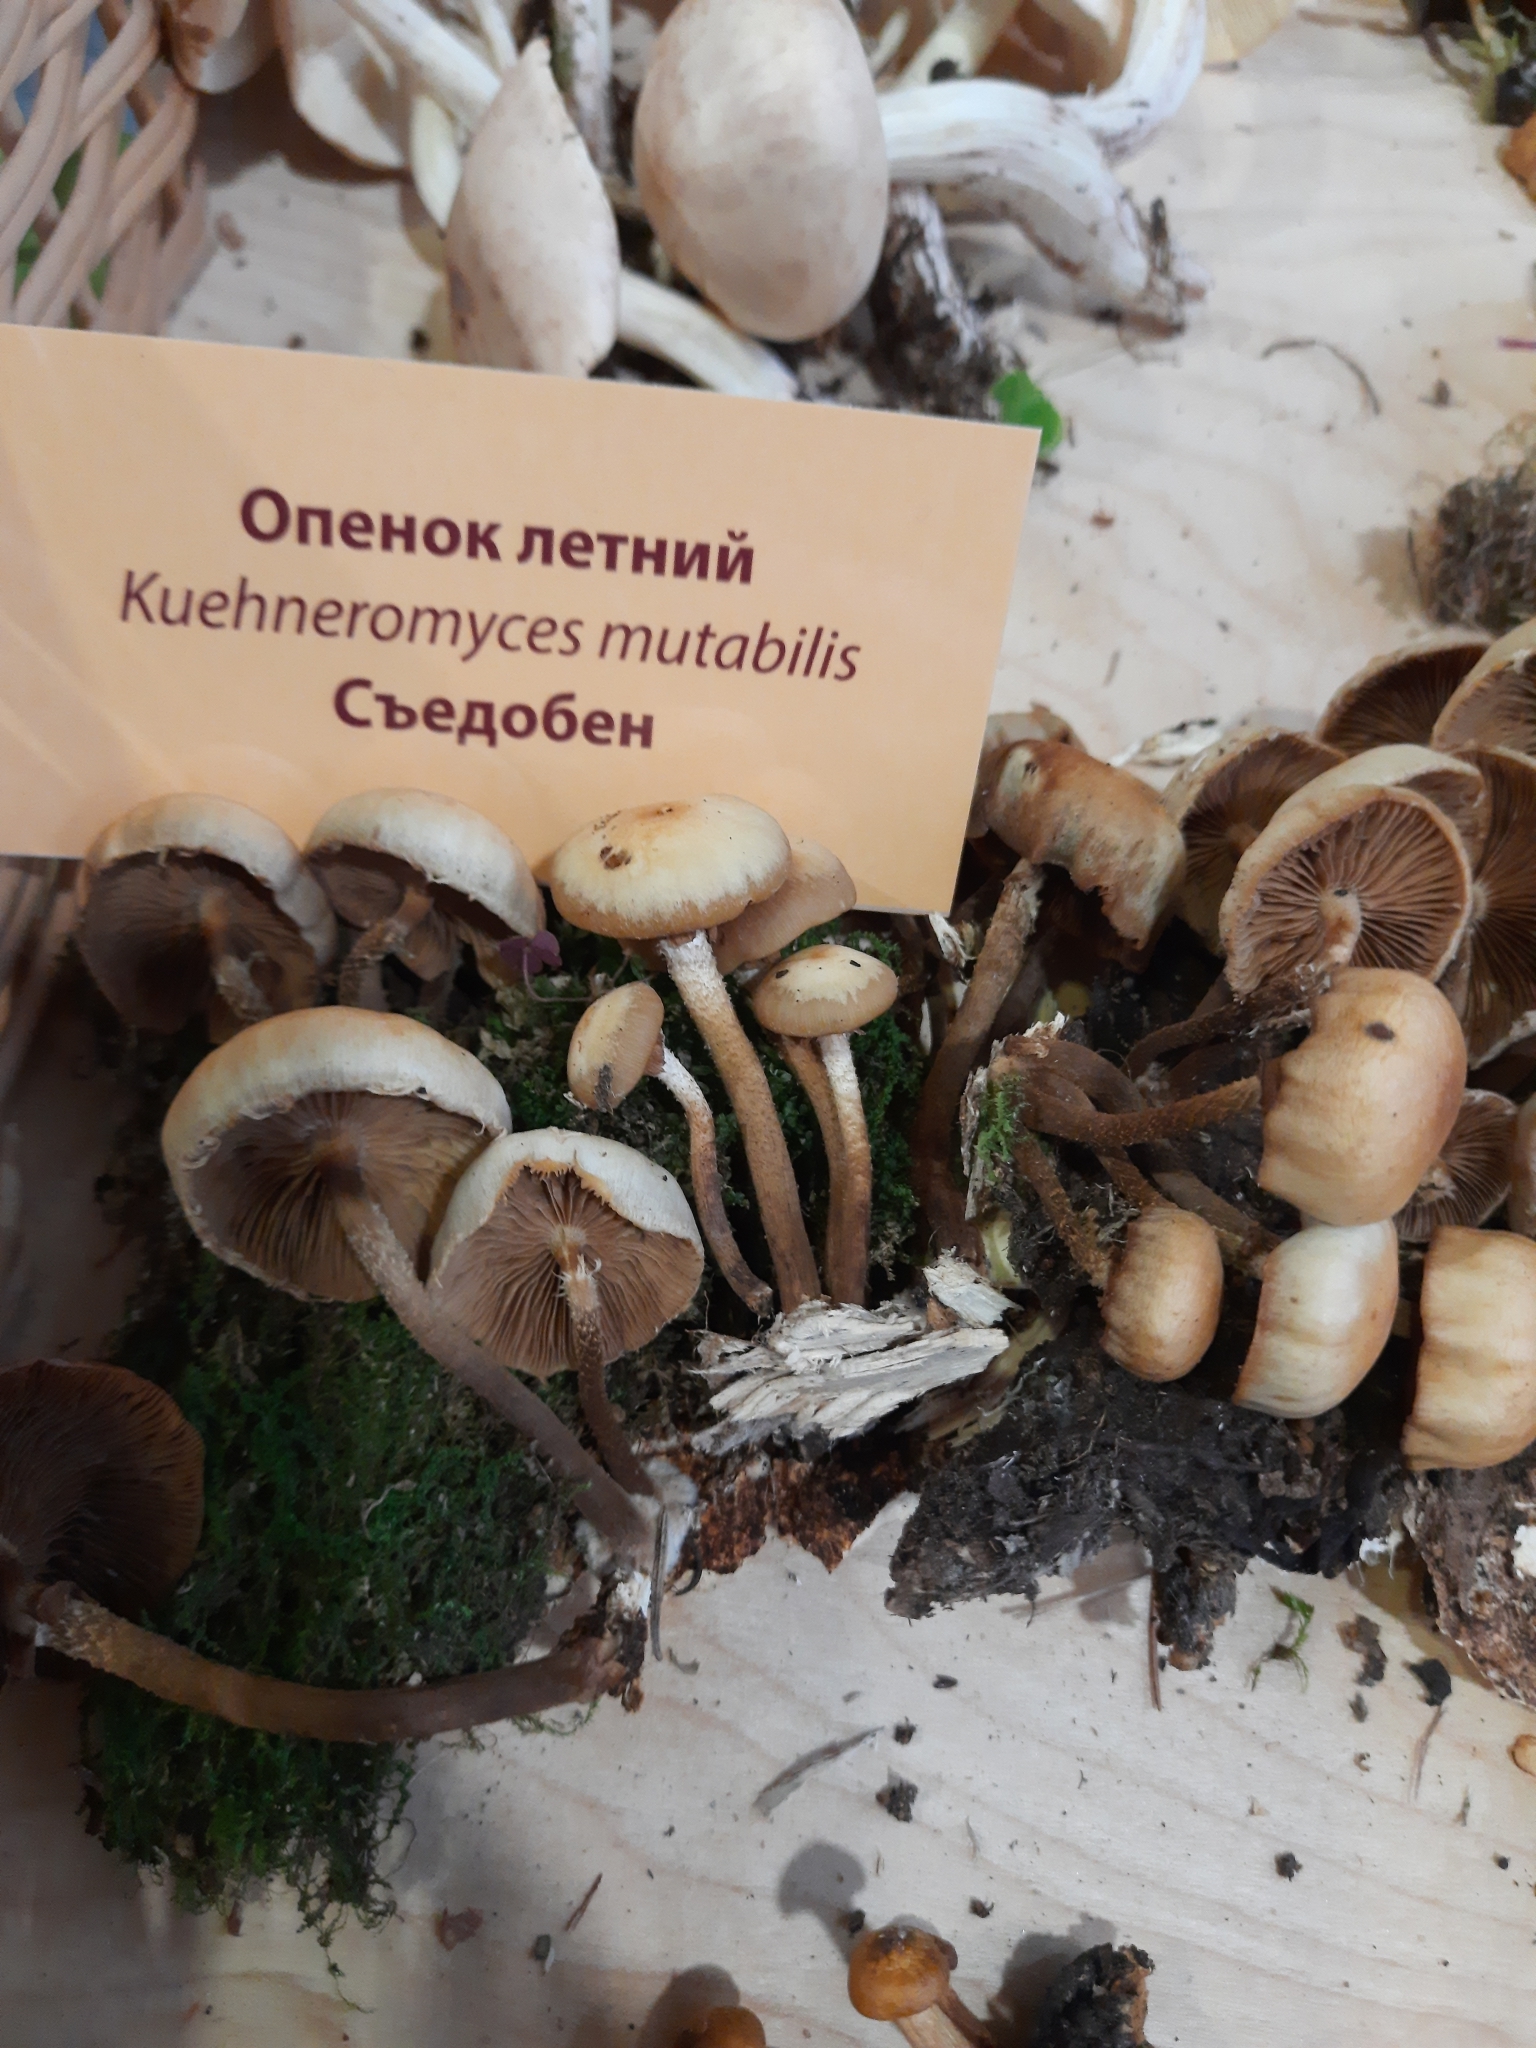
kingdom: Fungi
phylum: Basidiomycota
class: Agaricomycetes
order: Agaricales
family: Strophariaceae
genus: Kuehneromyces
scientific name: Kuehneromyces mutabilis
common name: Sheathed woodtuft
